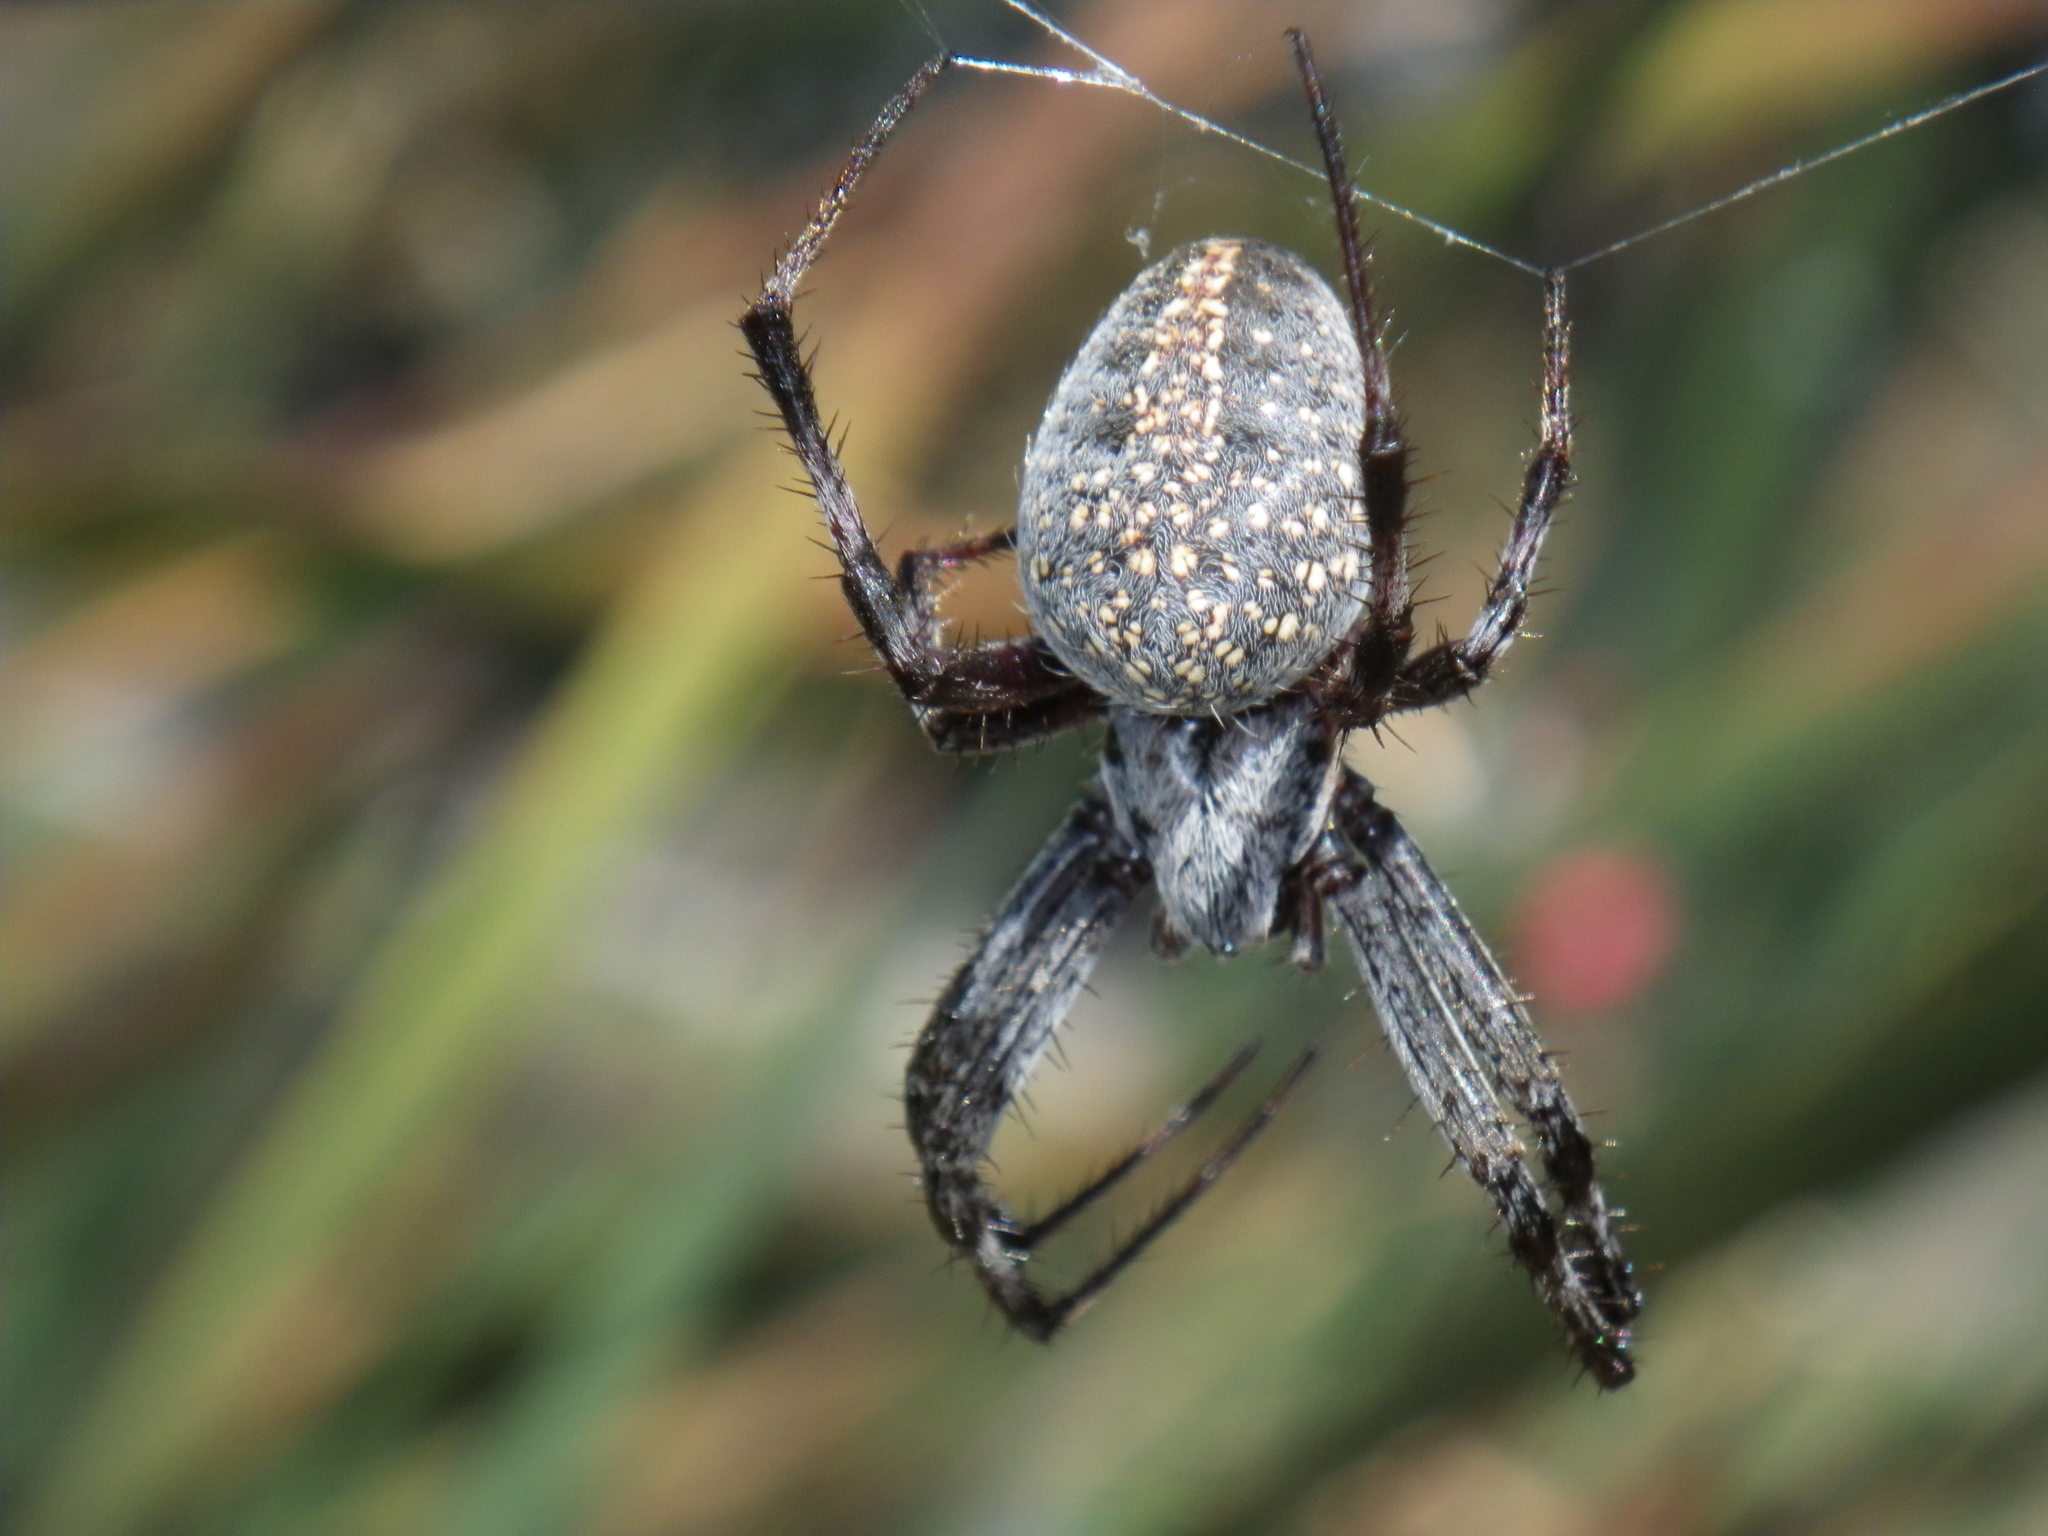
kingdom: Animalia
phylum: Arthropoda
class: Arachnida
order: Araneae
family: Araneidae
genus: Neoscona
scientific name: Neoscona oaxacensis
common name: Orb weavers
